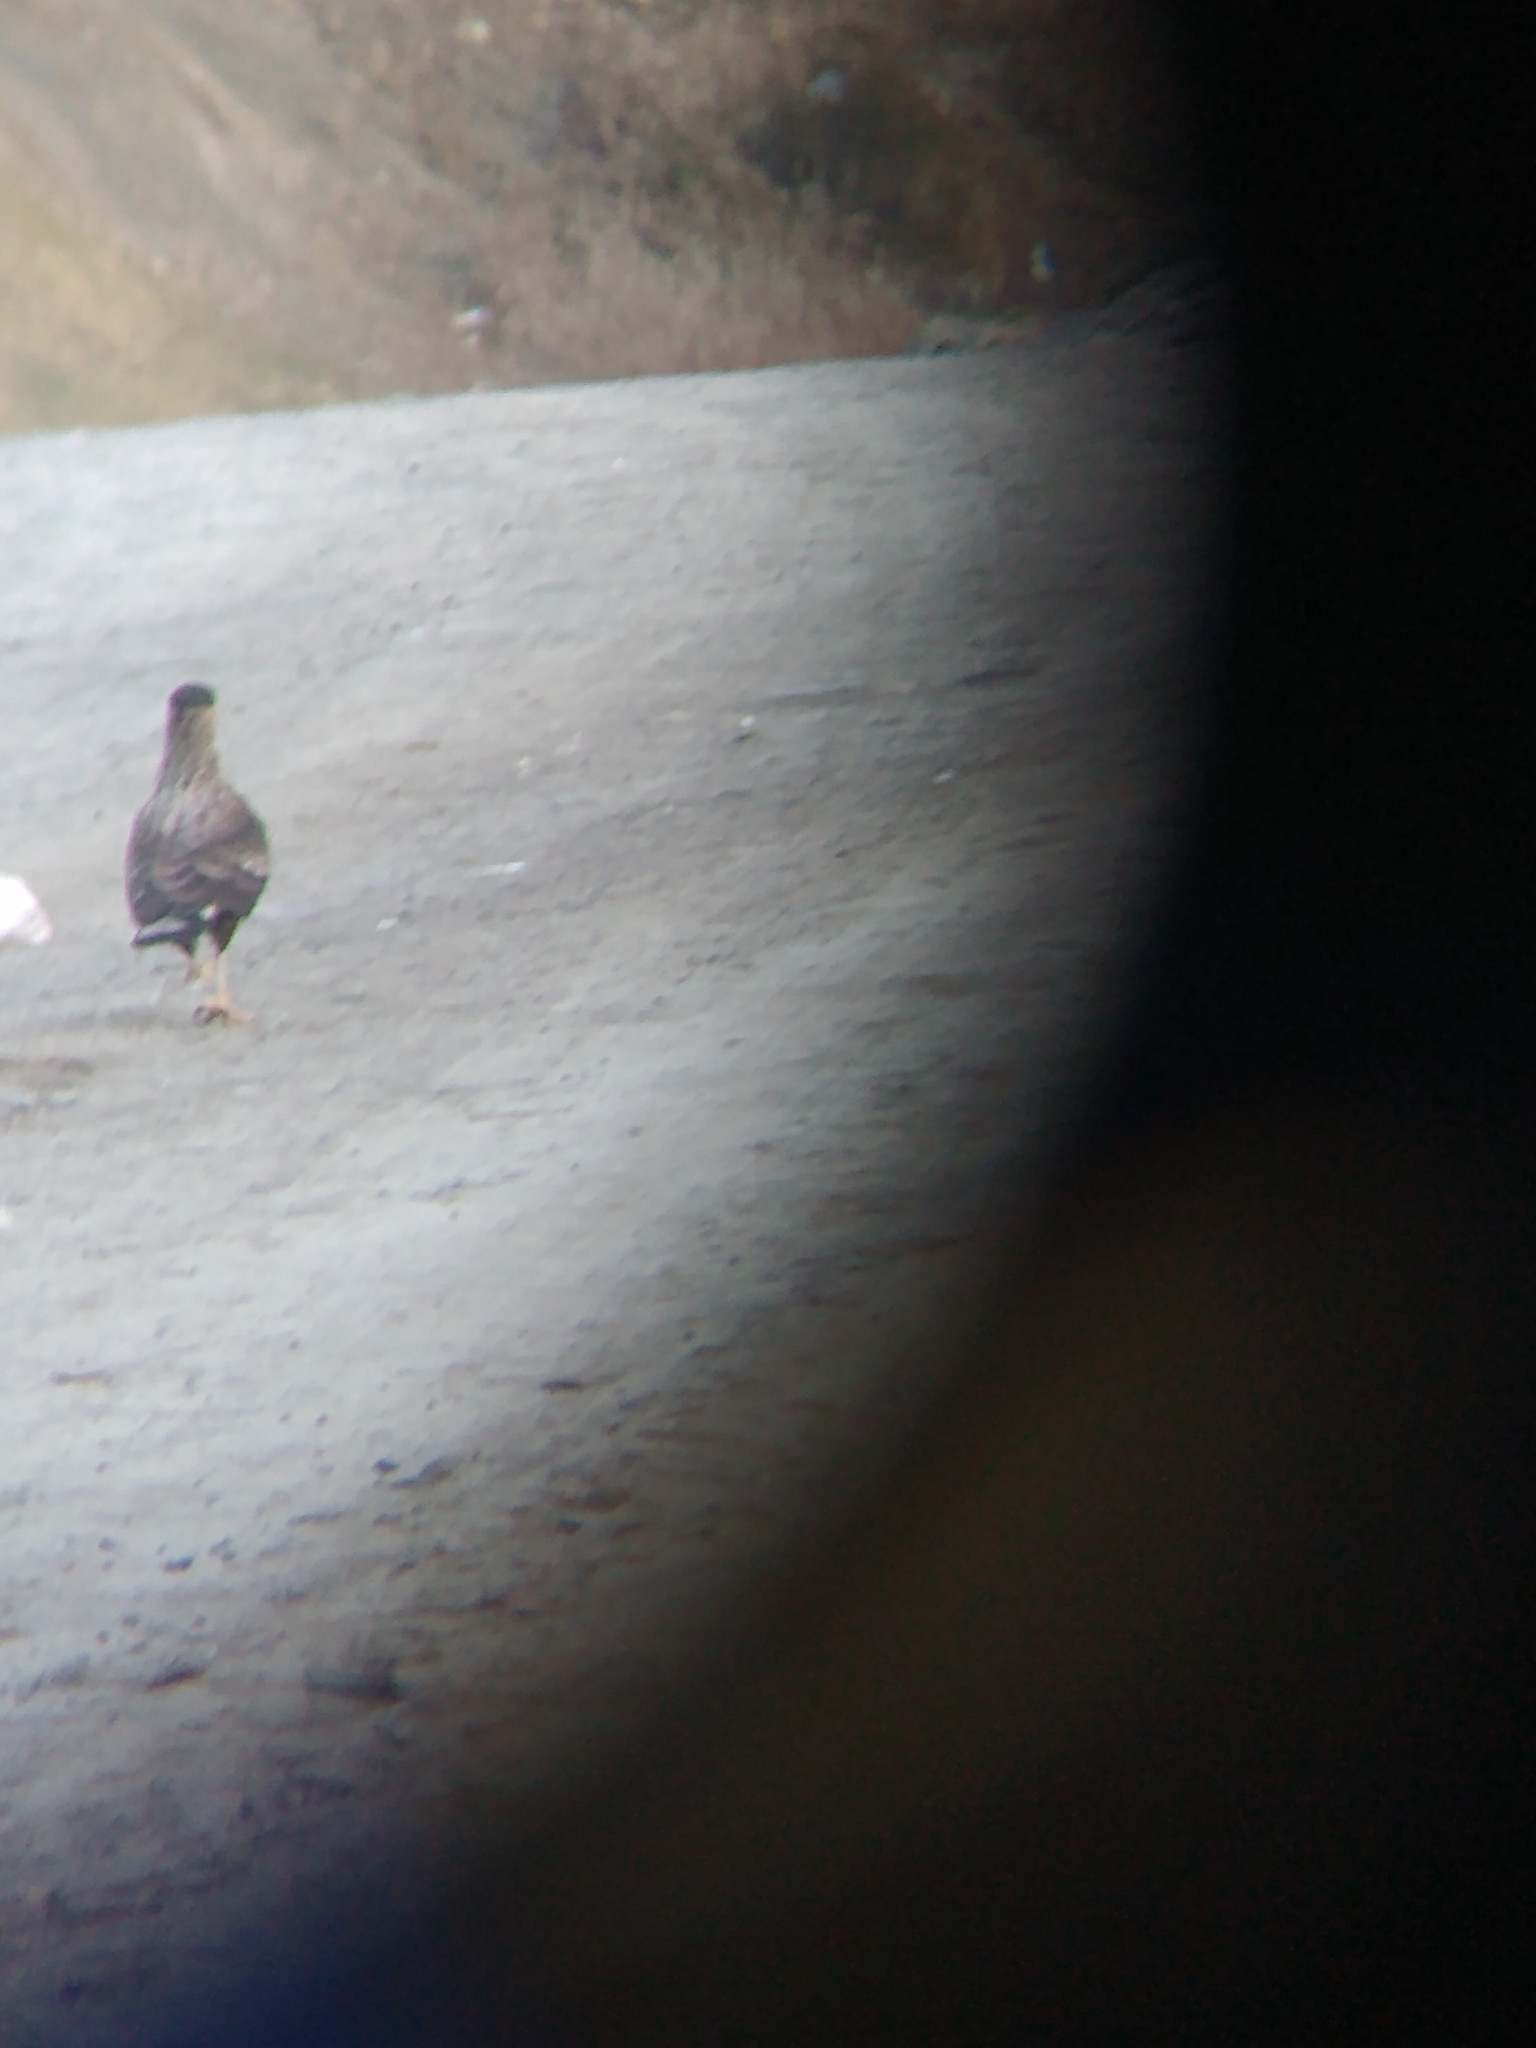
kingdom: Animalia
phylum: Chordata
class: Aves
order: Falconiformes
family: Falconidae
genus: Caracara
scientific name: Caracara plancus
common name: Southern caracara
